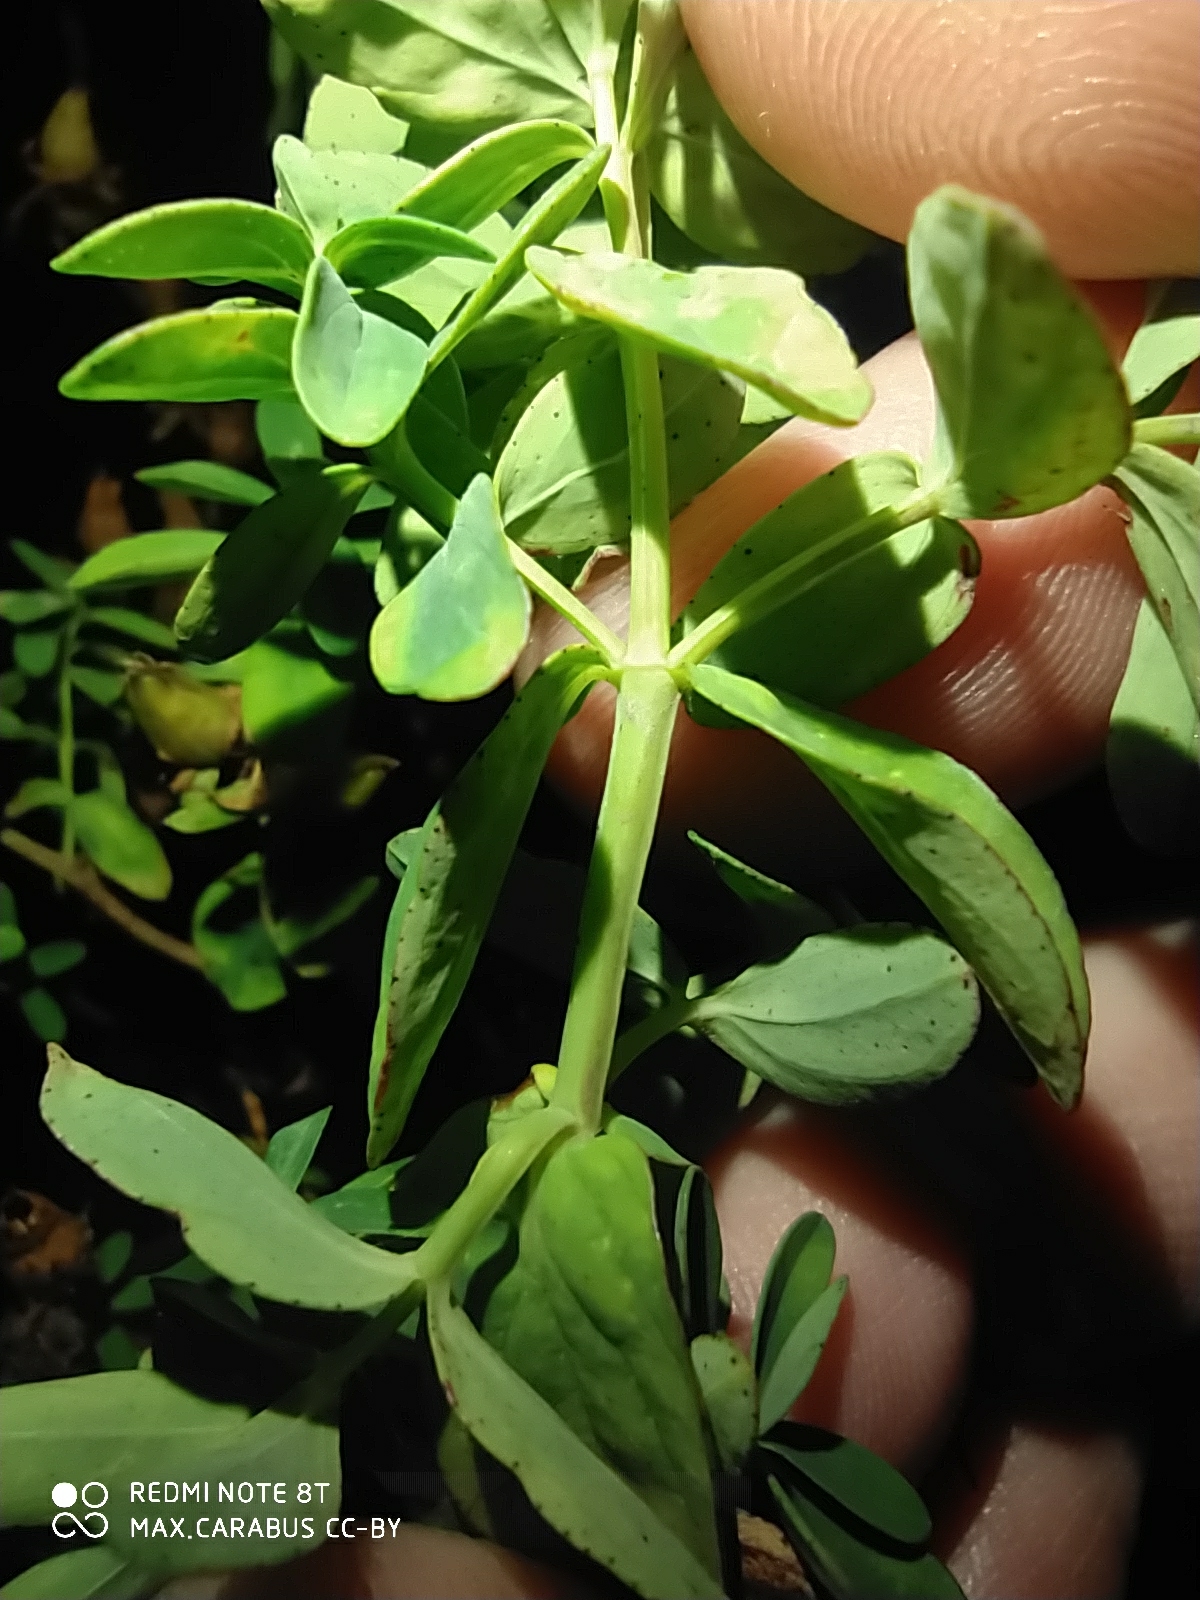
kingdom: Plantae
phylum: Tracheophyta
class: Magnoliopsida
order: Malpighiales
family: Hypericaceae
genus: Hypericum
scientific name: Hypericum perforatum
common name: Common st. johnswort
